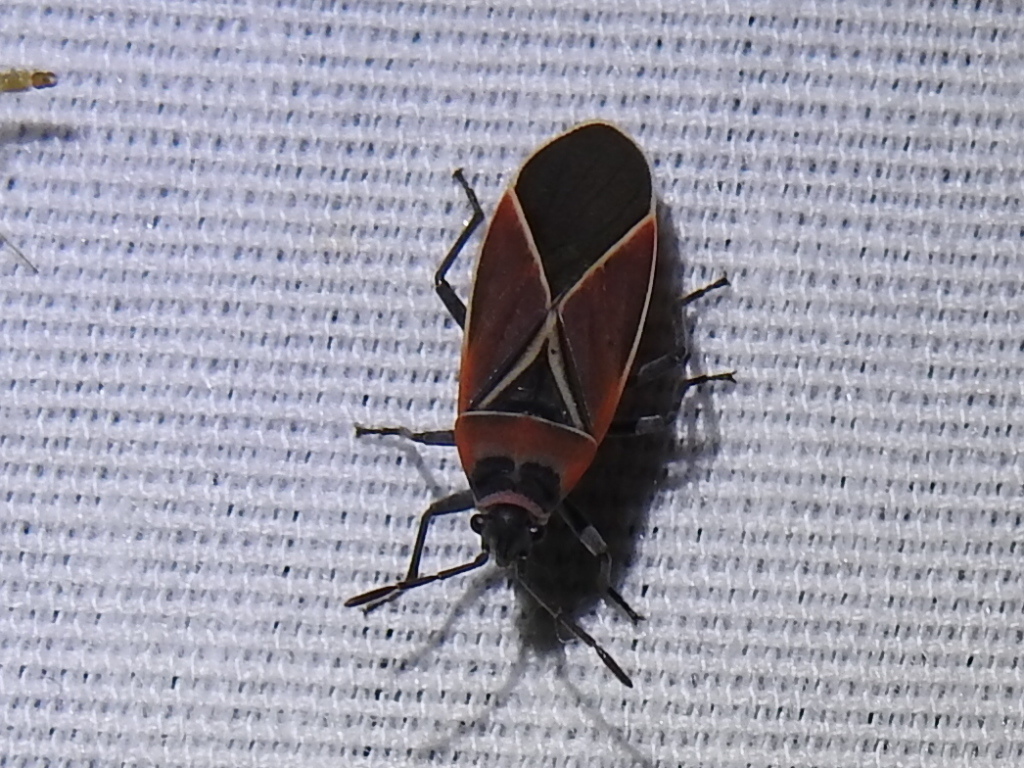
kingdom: Animalia
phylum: Arthropoda
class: Insecta
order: Hemiptera
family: Lygaeidae
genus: Neacoryphus
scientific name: Neacoryphus bicrucis
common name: Lygaeid bug
